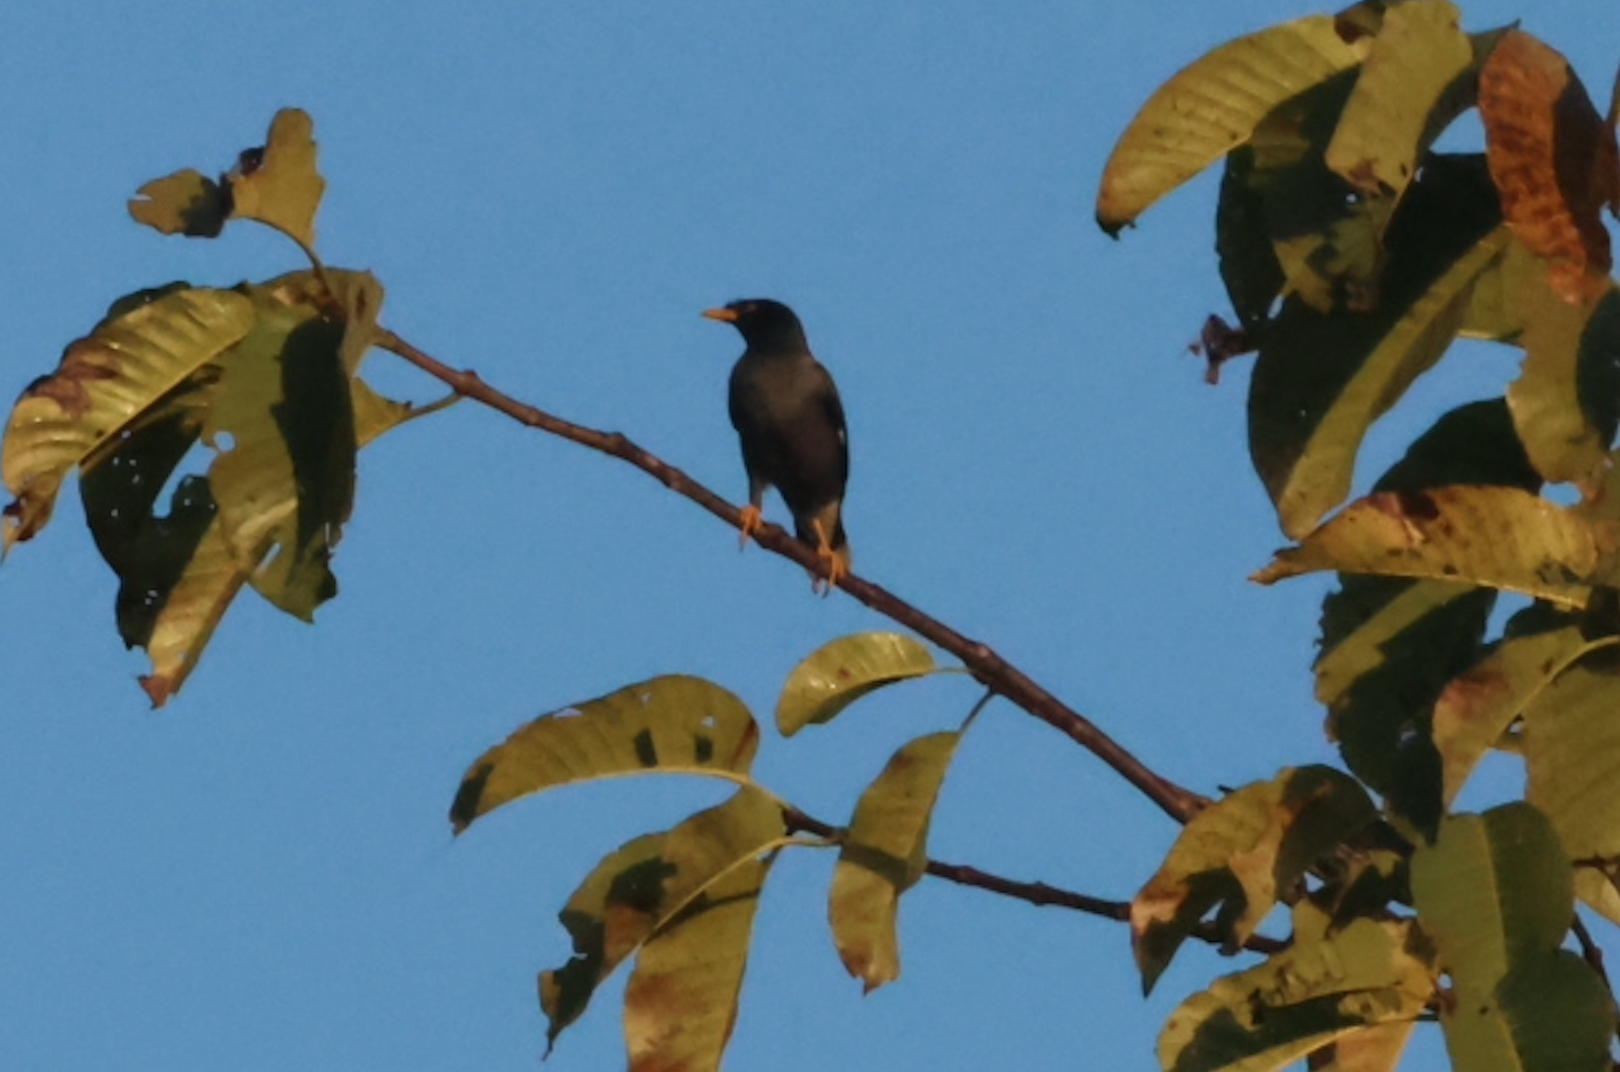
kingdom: Animalia
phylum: Chordata
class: Aves
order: Passeriformes
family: Sturnidae
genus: Acridotheres
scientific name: Acridotheres javanicus
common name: Javan myna
